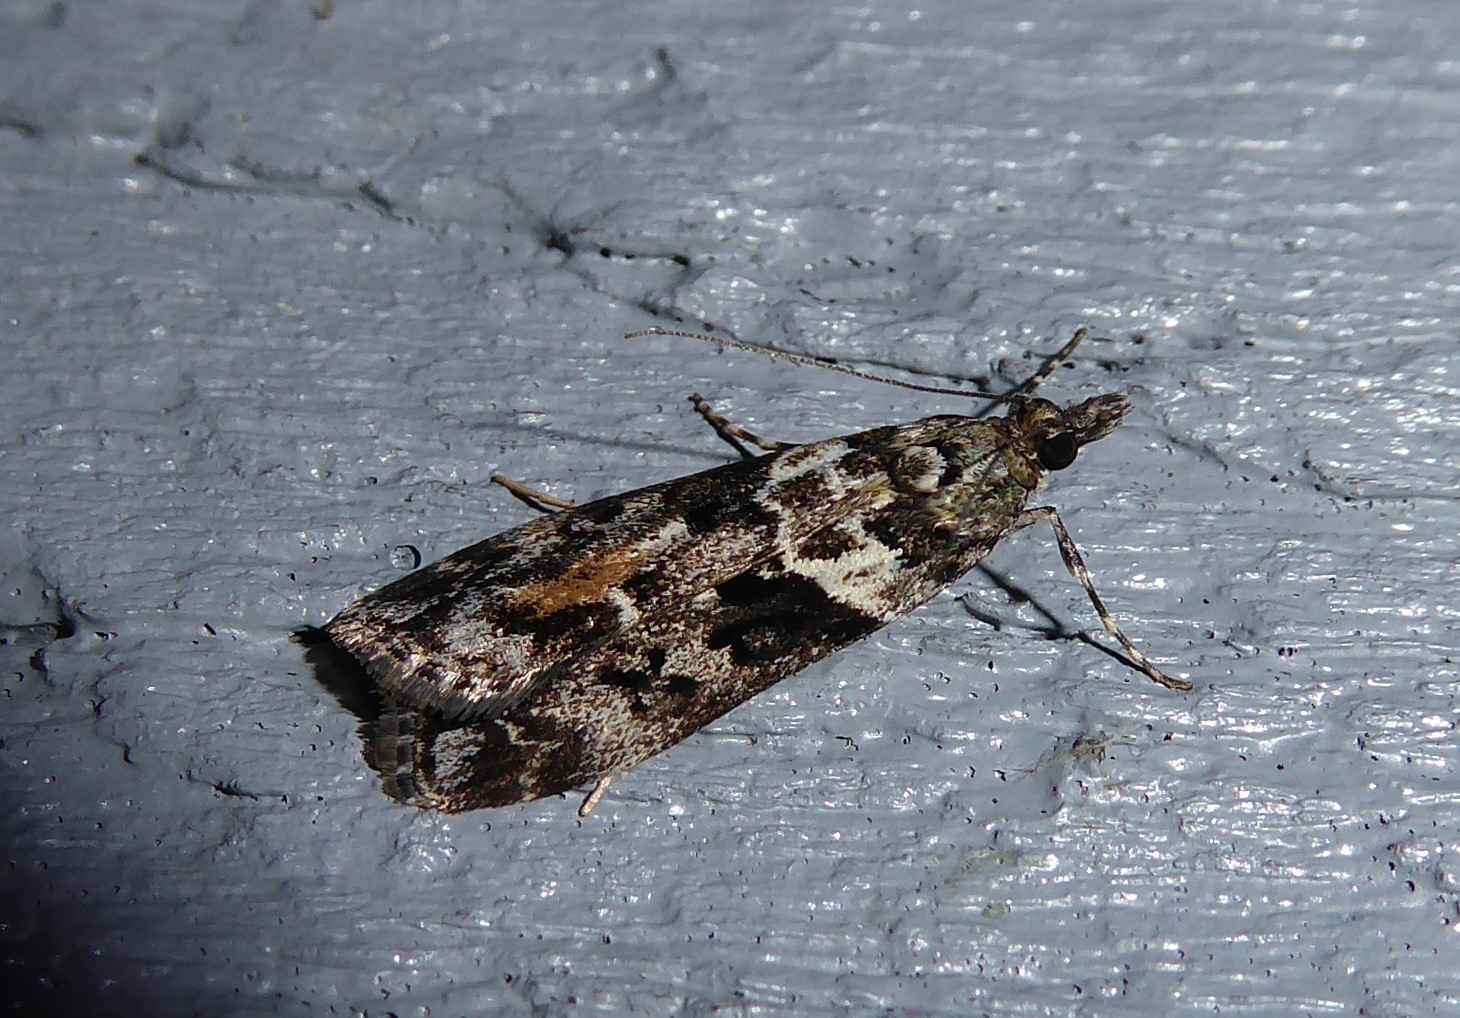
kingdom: Animalia
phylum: Arthropoda
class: Insecta
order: Lepidoptera
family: Crambidae
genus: Eudonia
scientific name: Eudonia submarginalis
